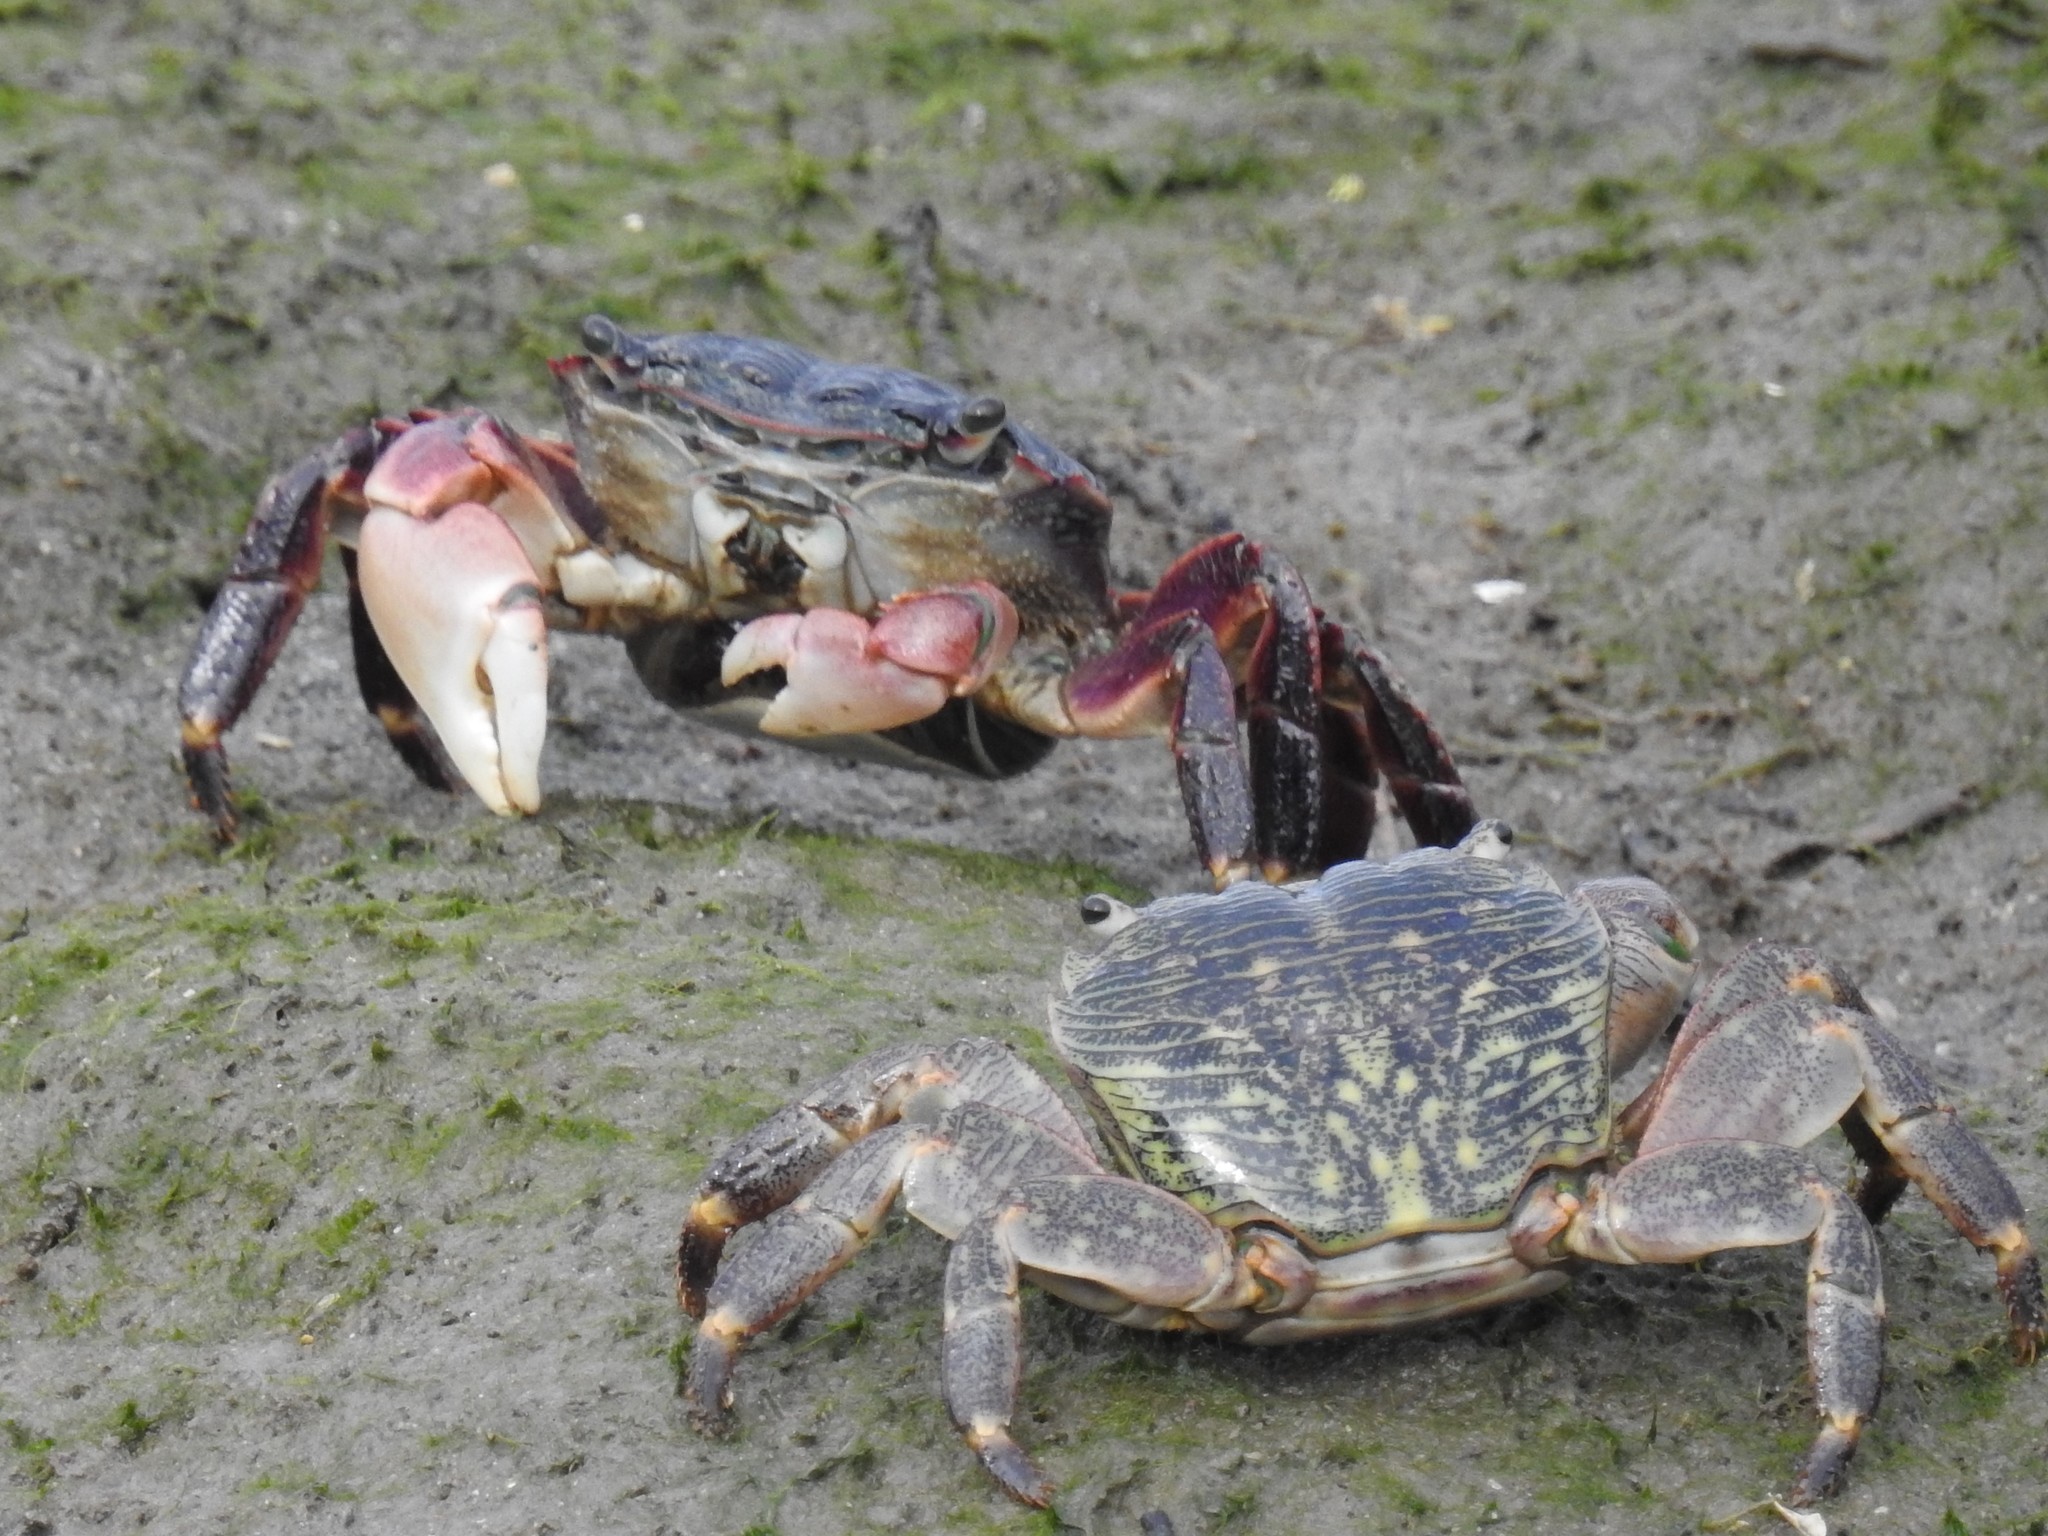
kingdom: Animalia
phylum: Arthropoda
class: Malacostraca
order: Decapoda
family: Grapsidae
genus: Pachygrapsus
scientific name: Pachygrapsus crassipes
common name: Striped shore crab
